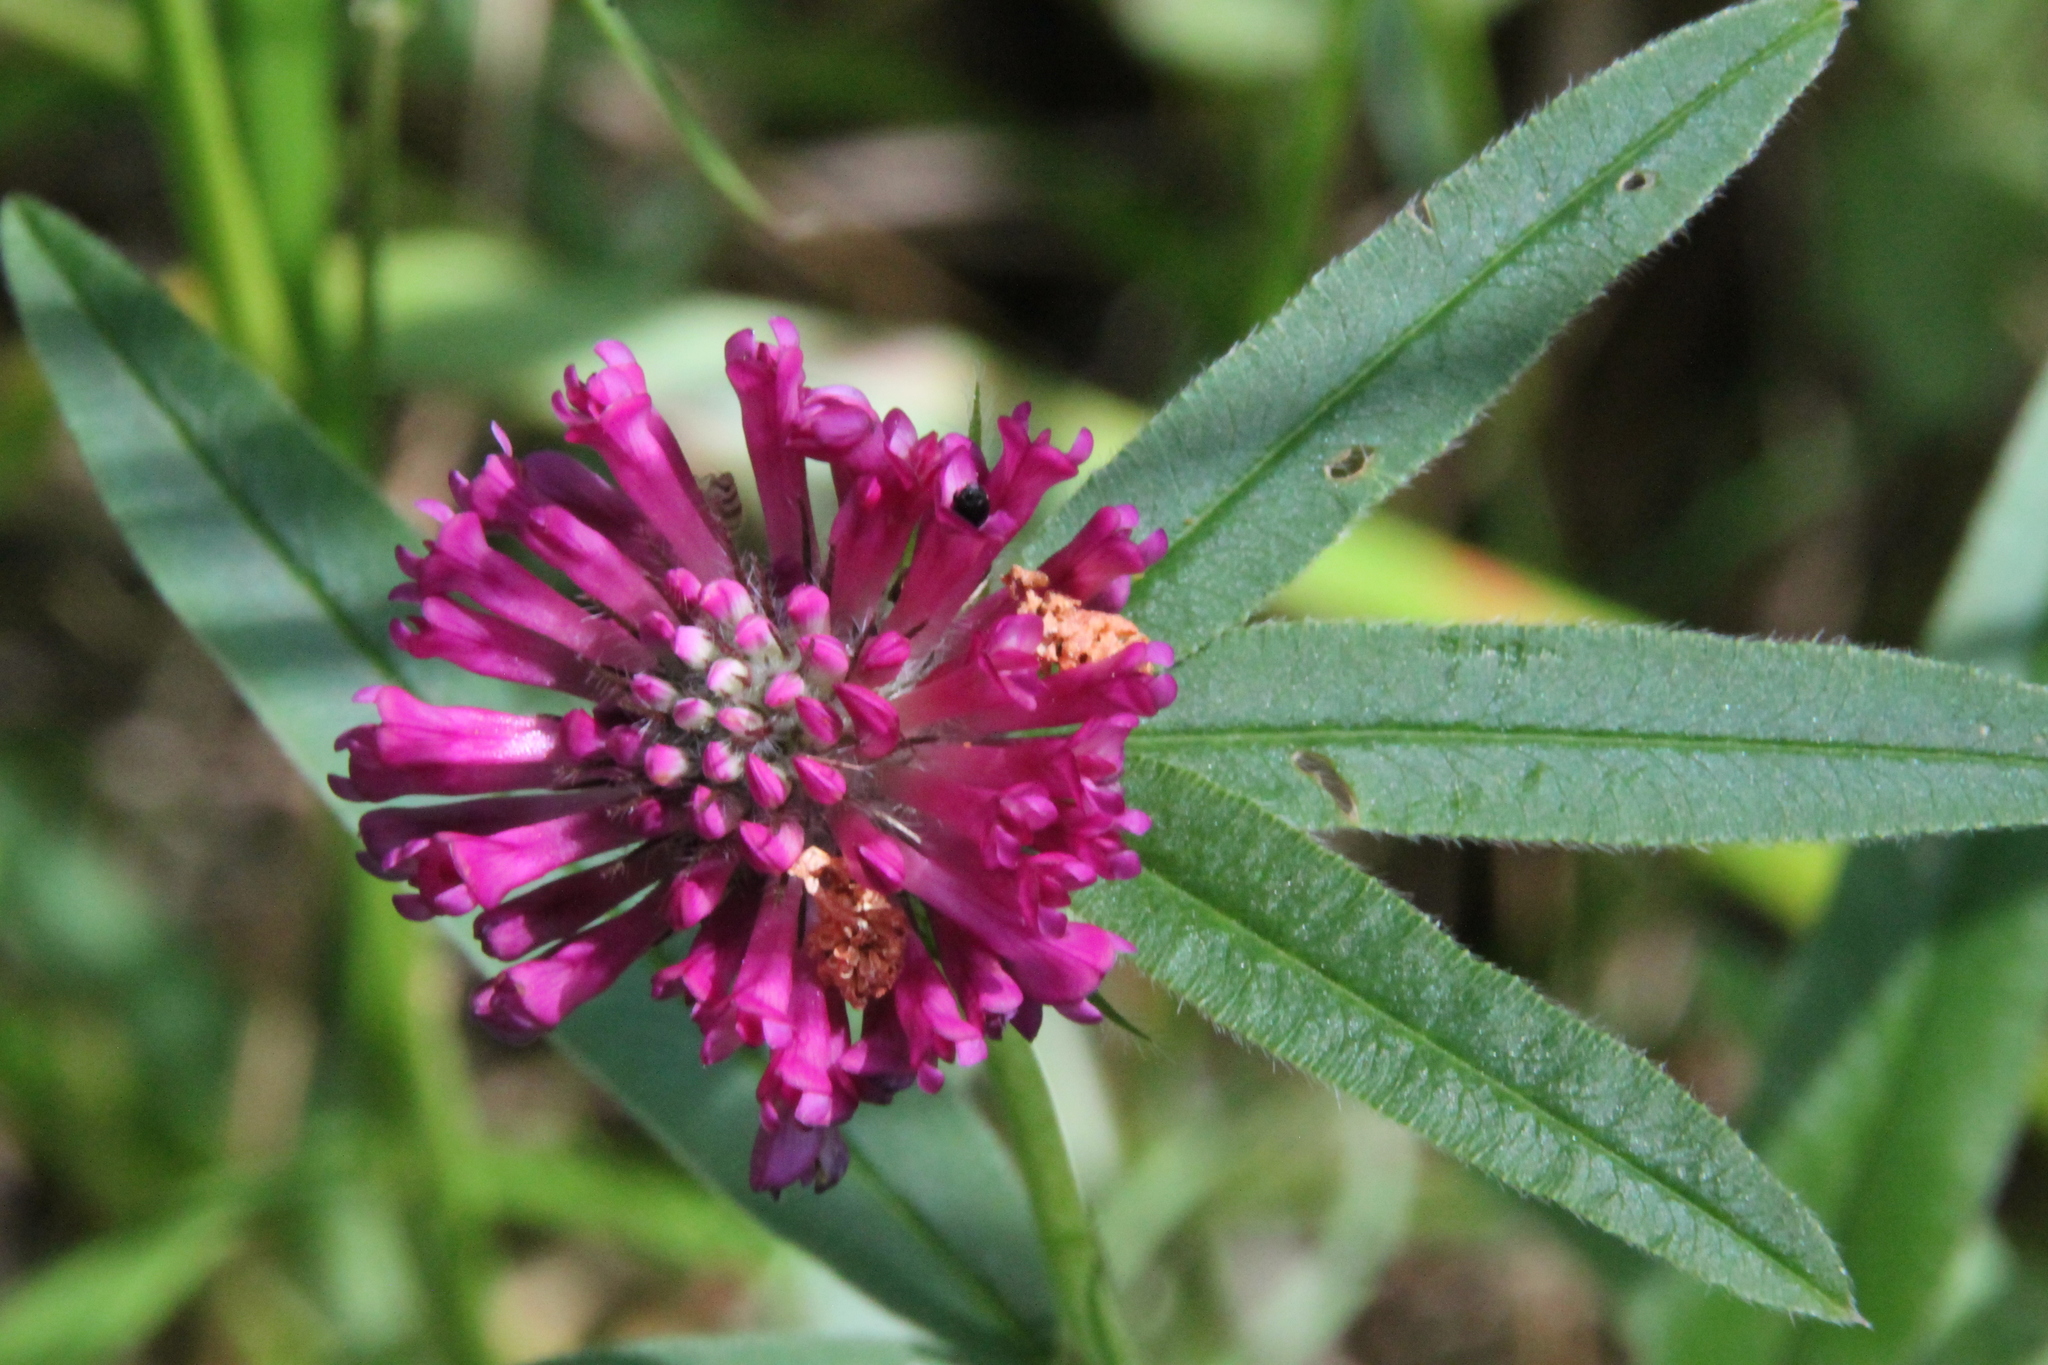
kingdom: Plantae
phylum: Tracheophyta
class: Magnoliopsida
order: Fabales
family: Fabaceae
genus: Trifolium
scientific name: Trifolium alpestre
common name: Owl-head clover
